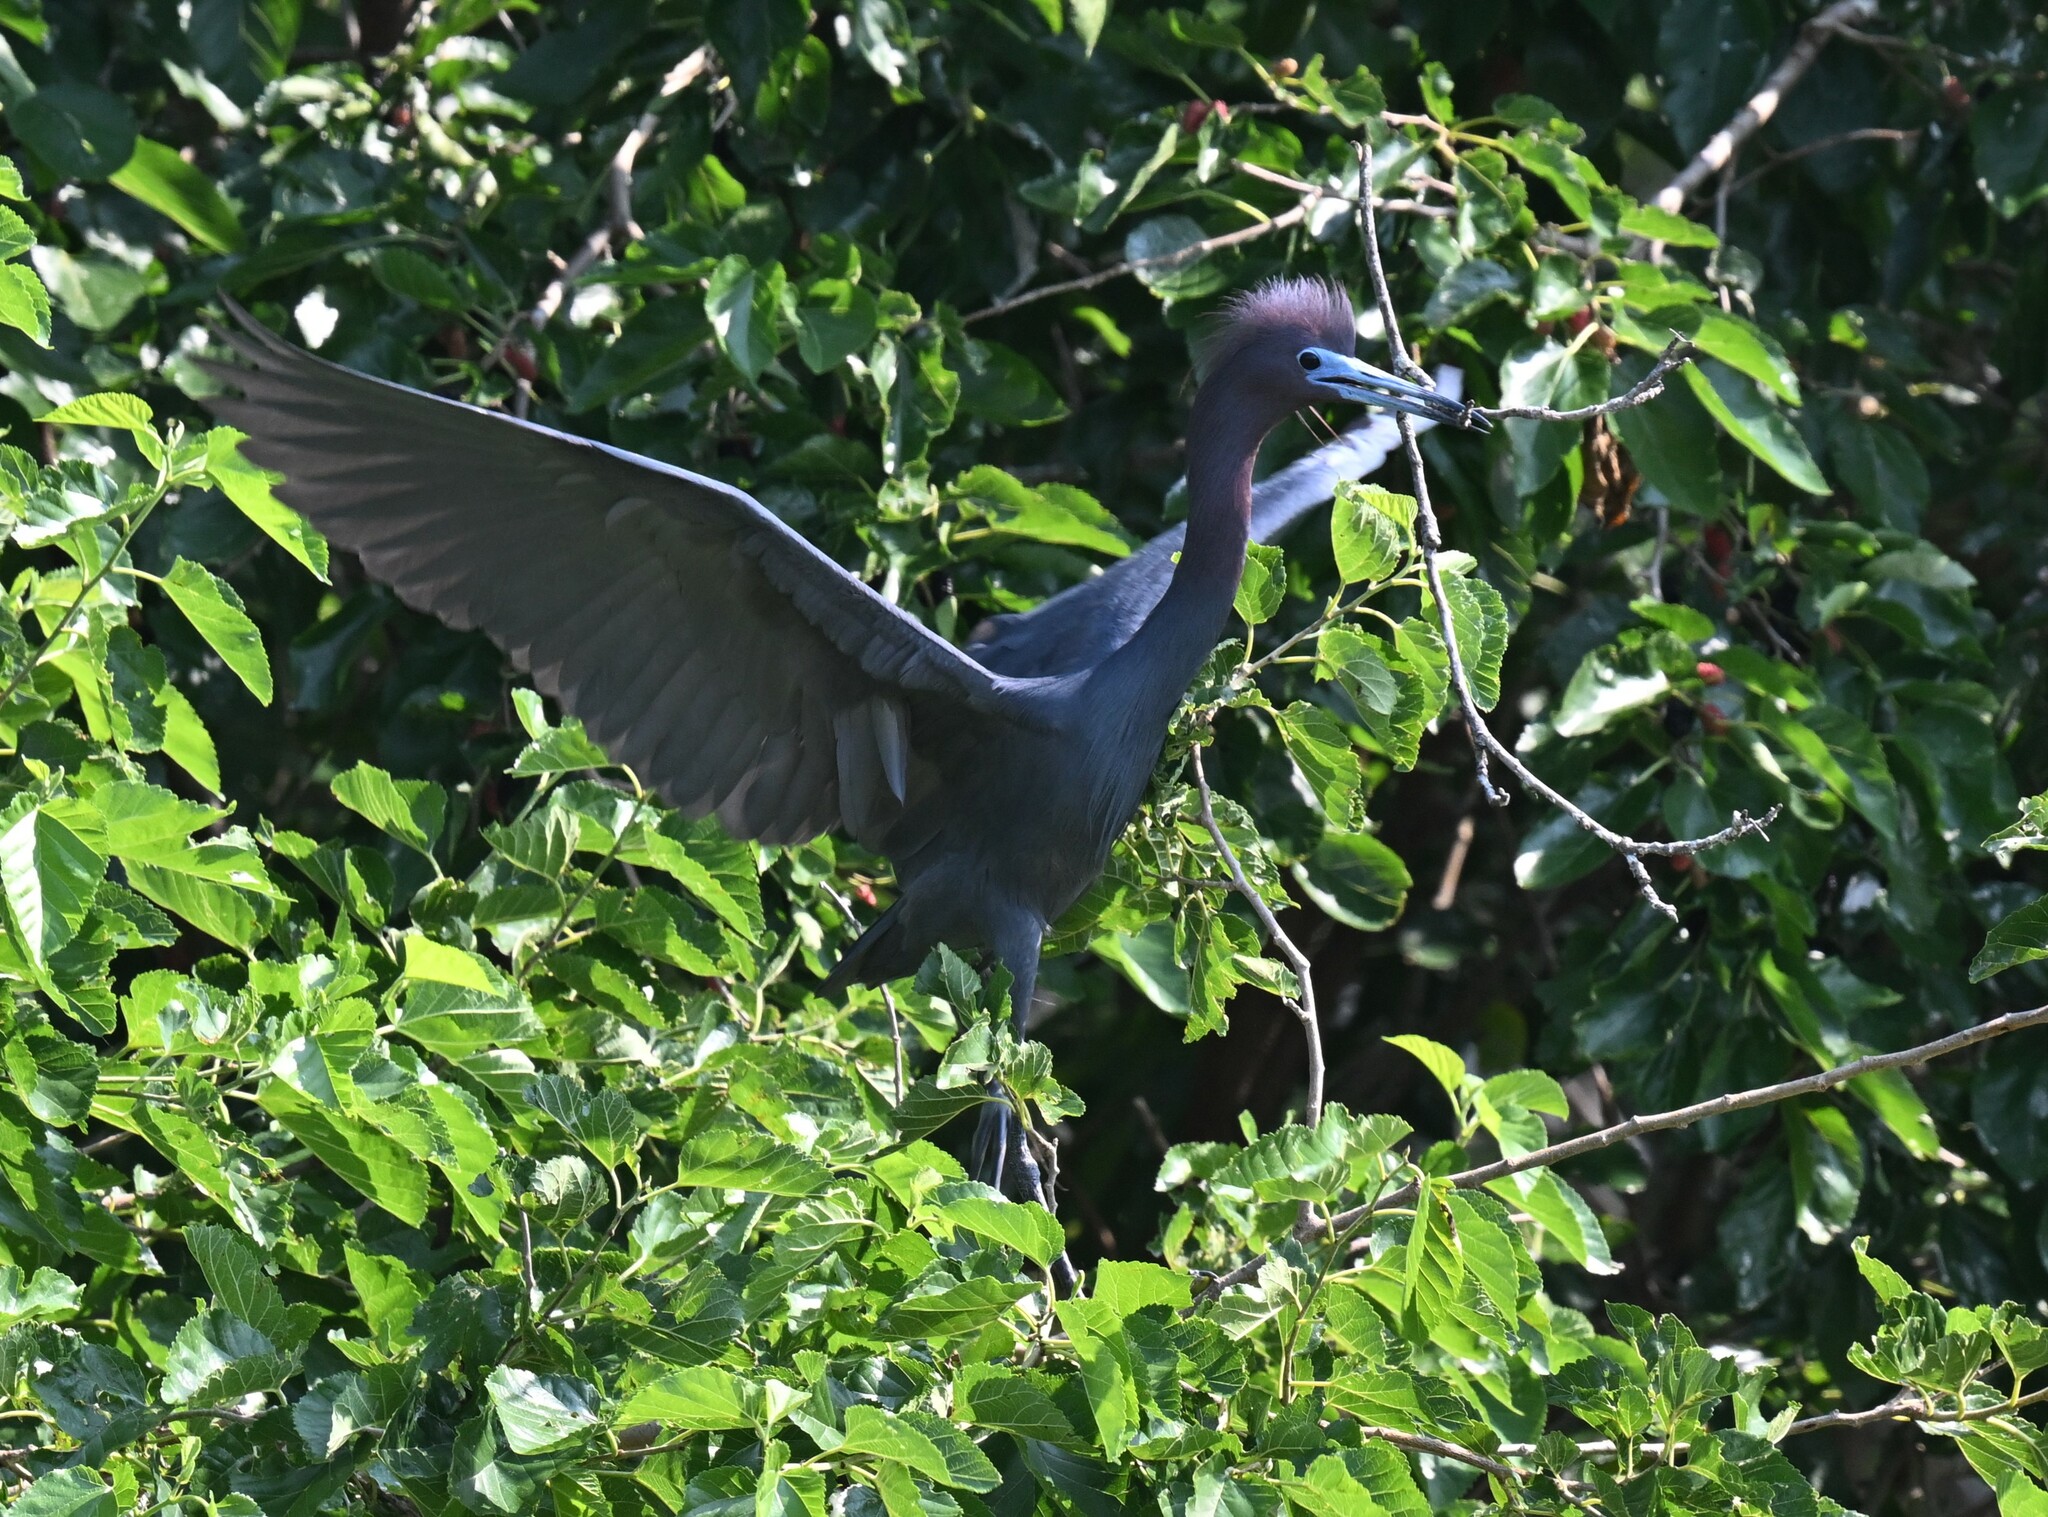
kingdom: Animalia
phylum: Chordata
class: Aves
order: Pelecaniformes
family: Ardeidae
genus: Egretta
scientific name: Egretta caerulea
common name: Little blue heron
